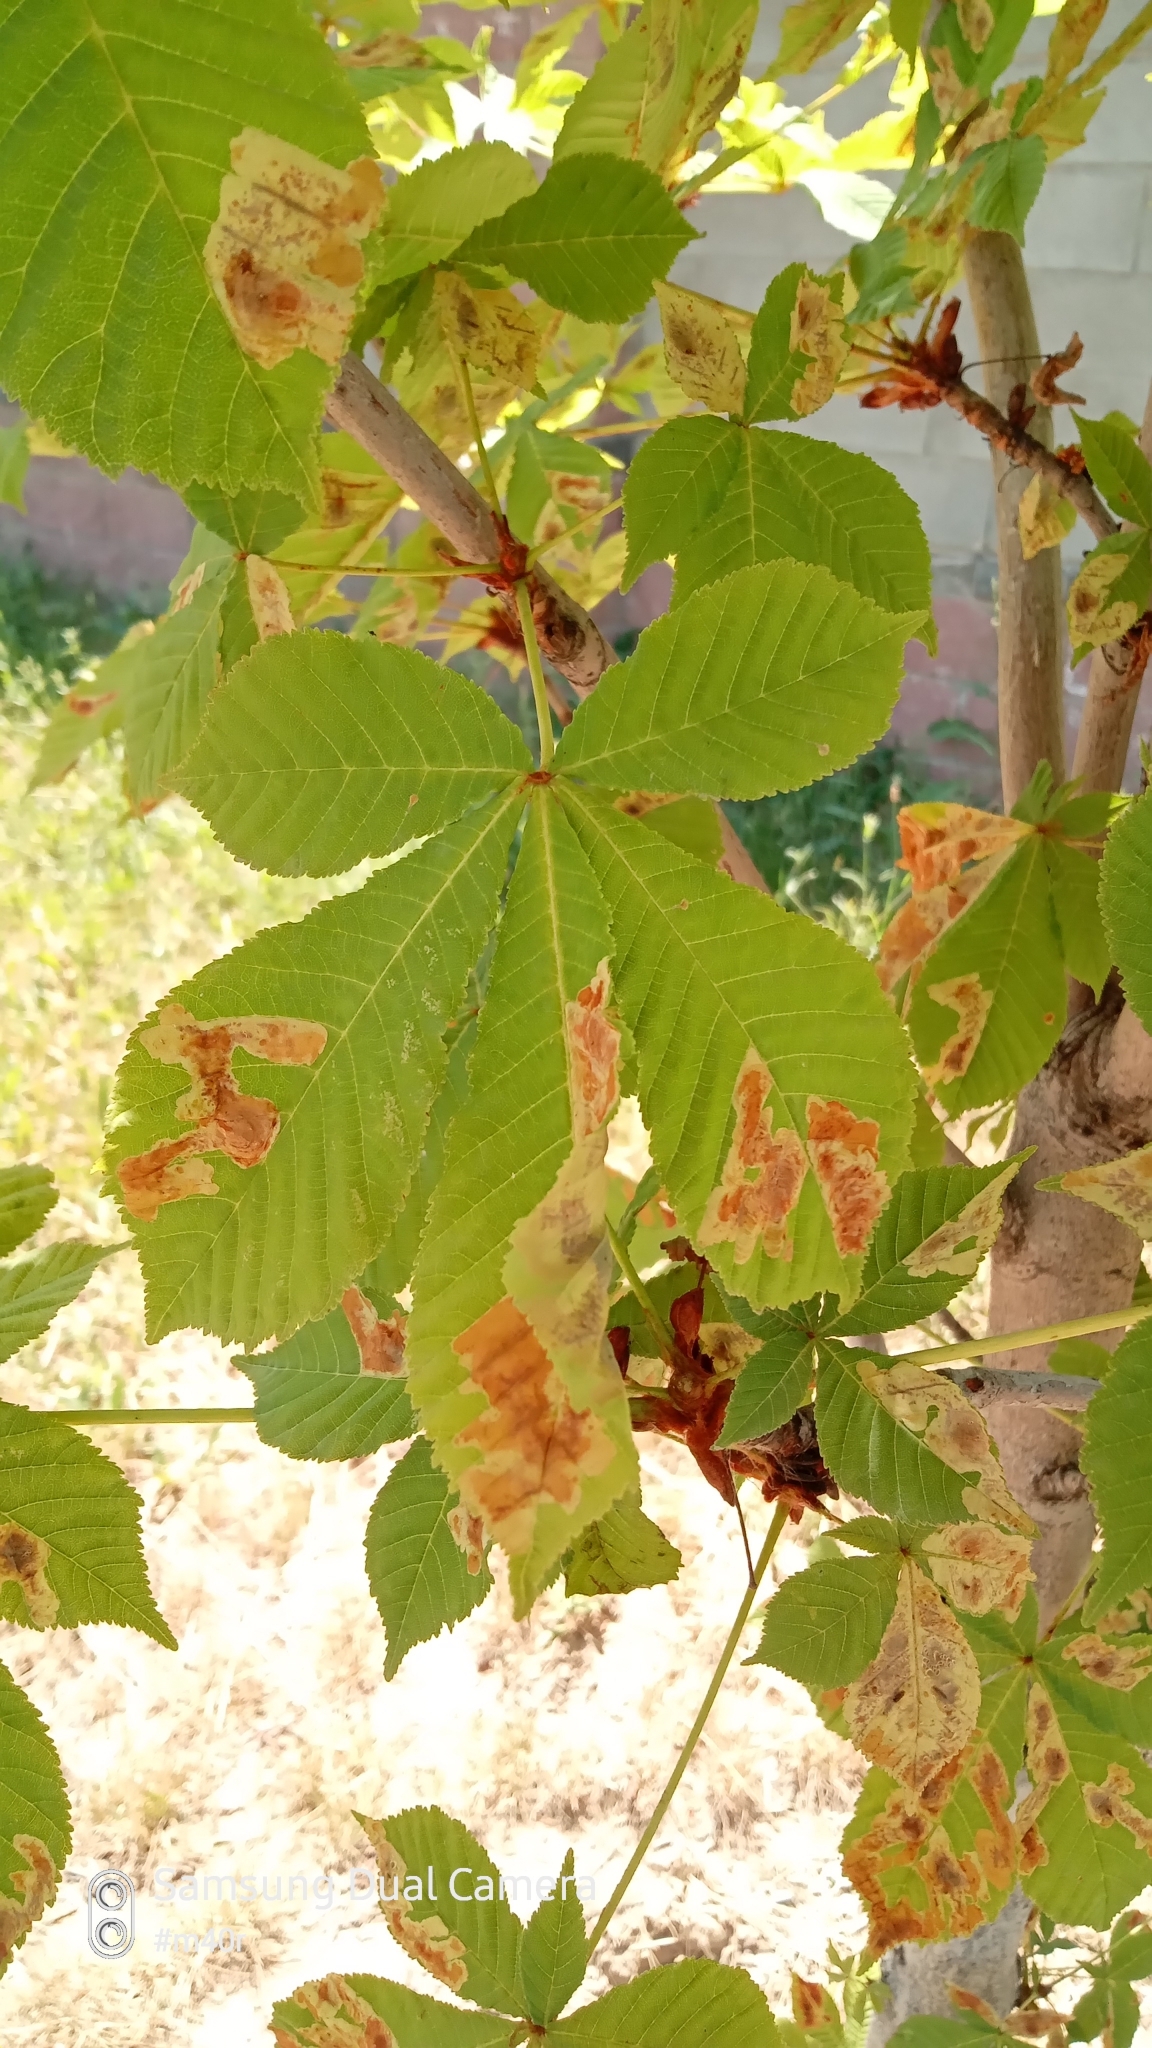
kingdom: Animalia
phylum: Arthropoda
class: Insecta
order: Lepidoptera
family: Gracillariidae
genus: Cameraria
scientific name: Cameraria ohridella
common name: Horse-chestnut leaf-miner
